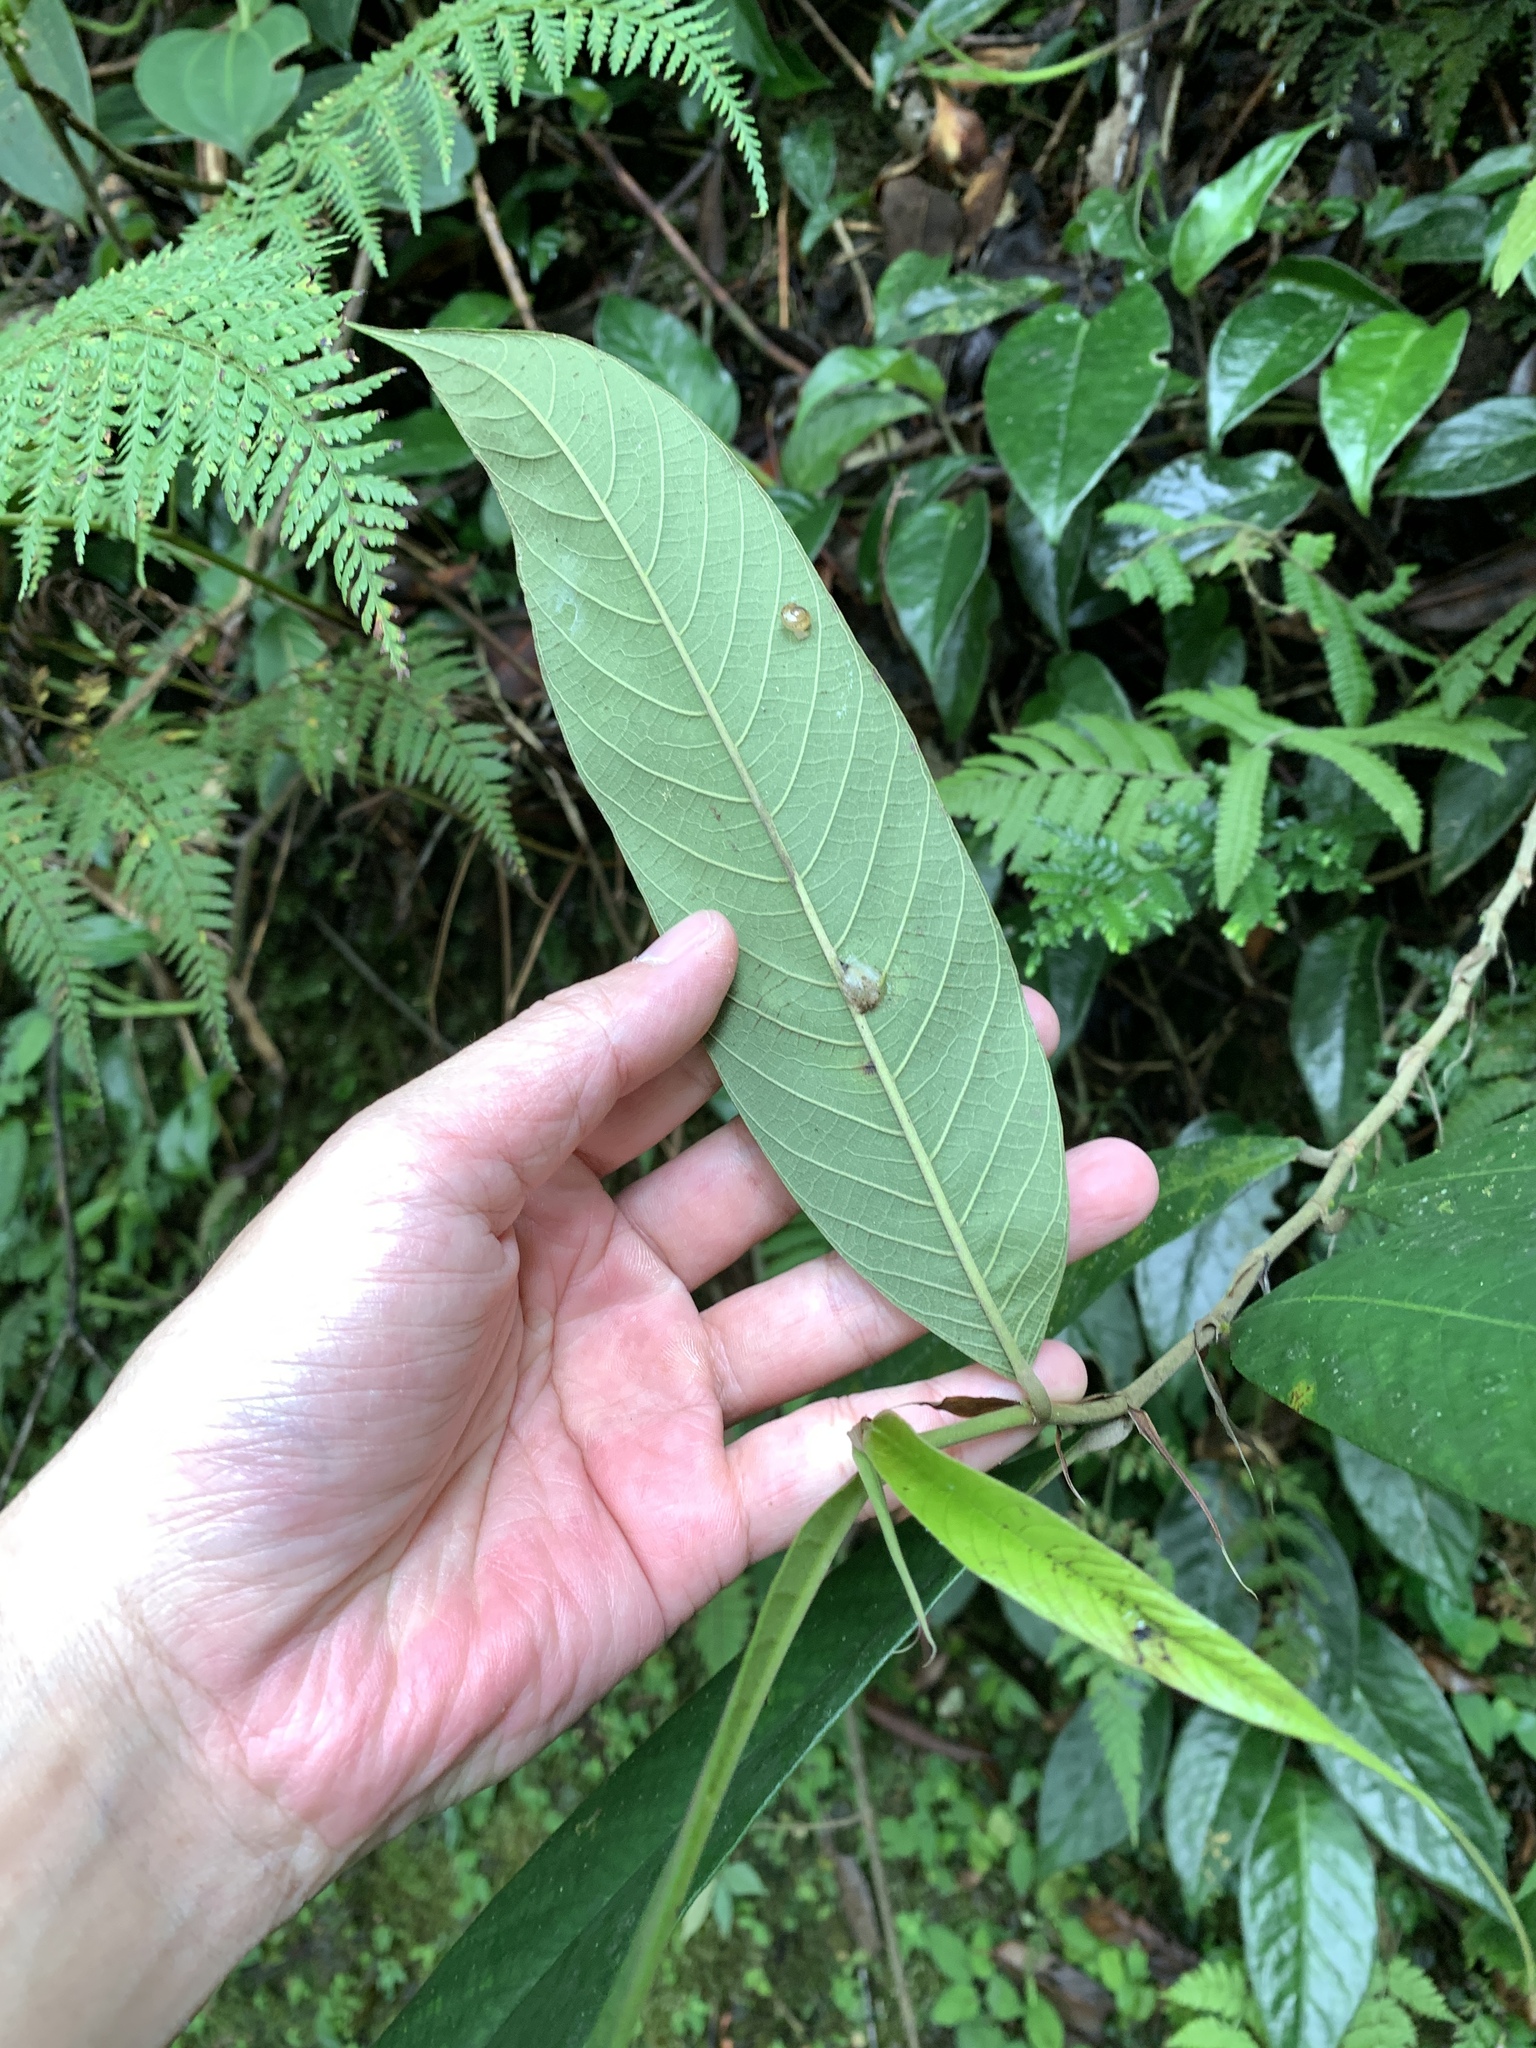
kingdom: Plantae
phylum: Tracheophyta
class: Magnoliopsida
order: Rosales
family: Moraceae
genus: Ficus
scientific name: Ficus beccarii
